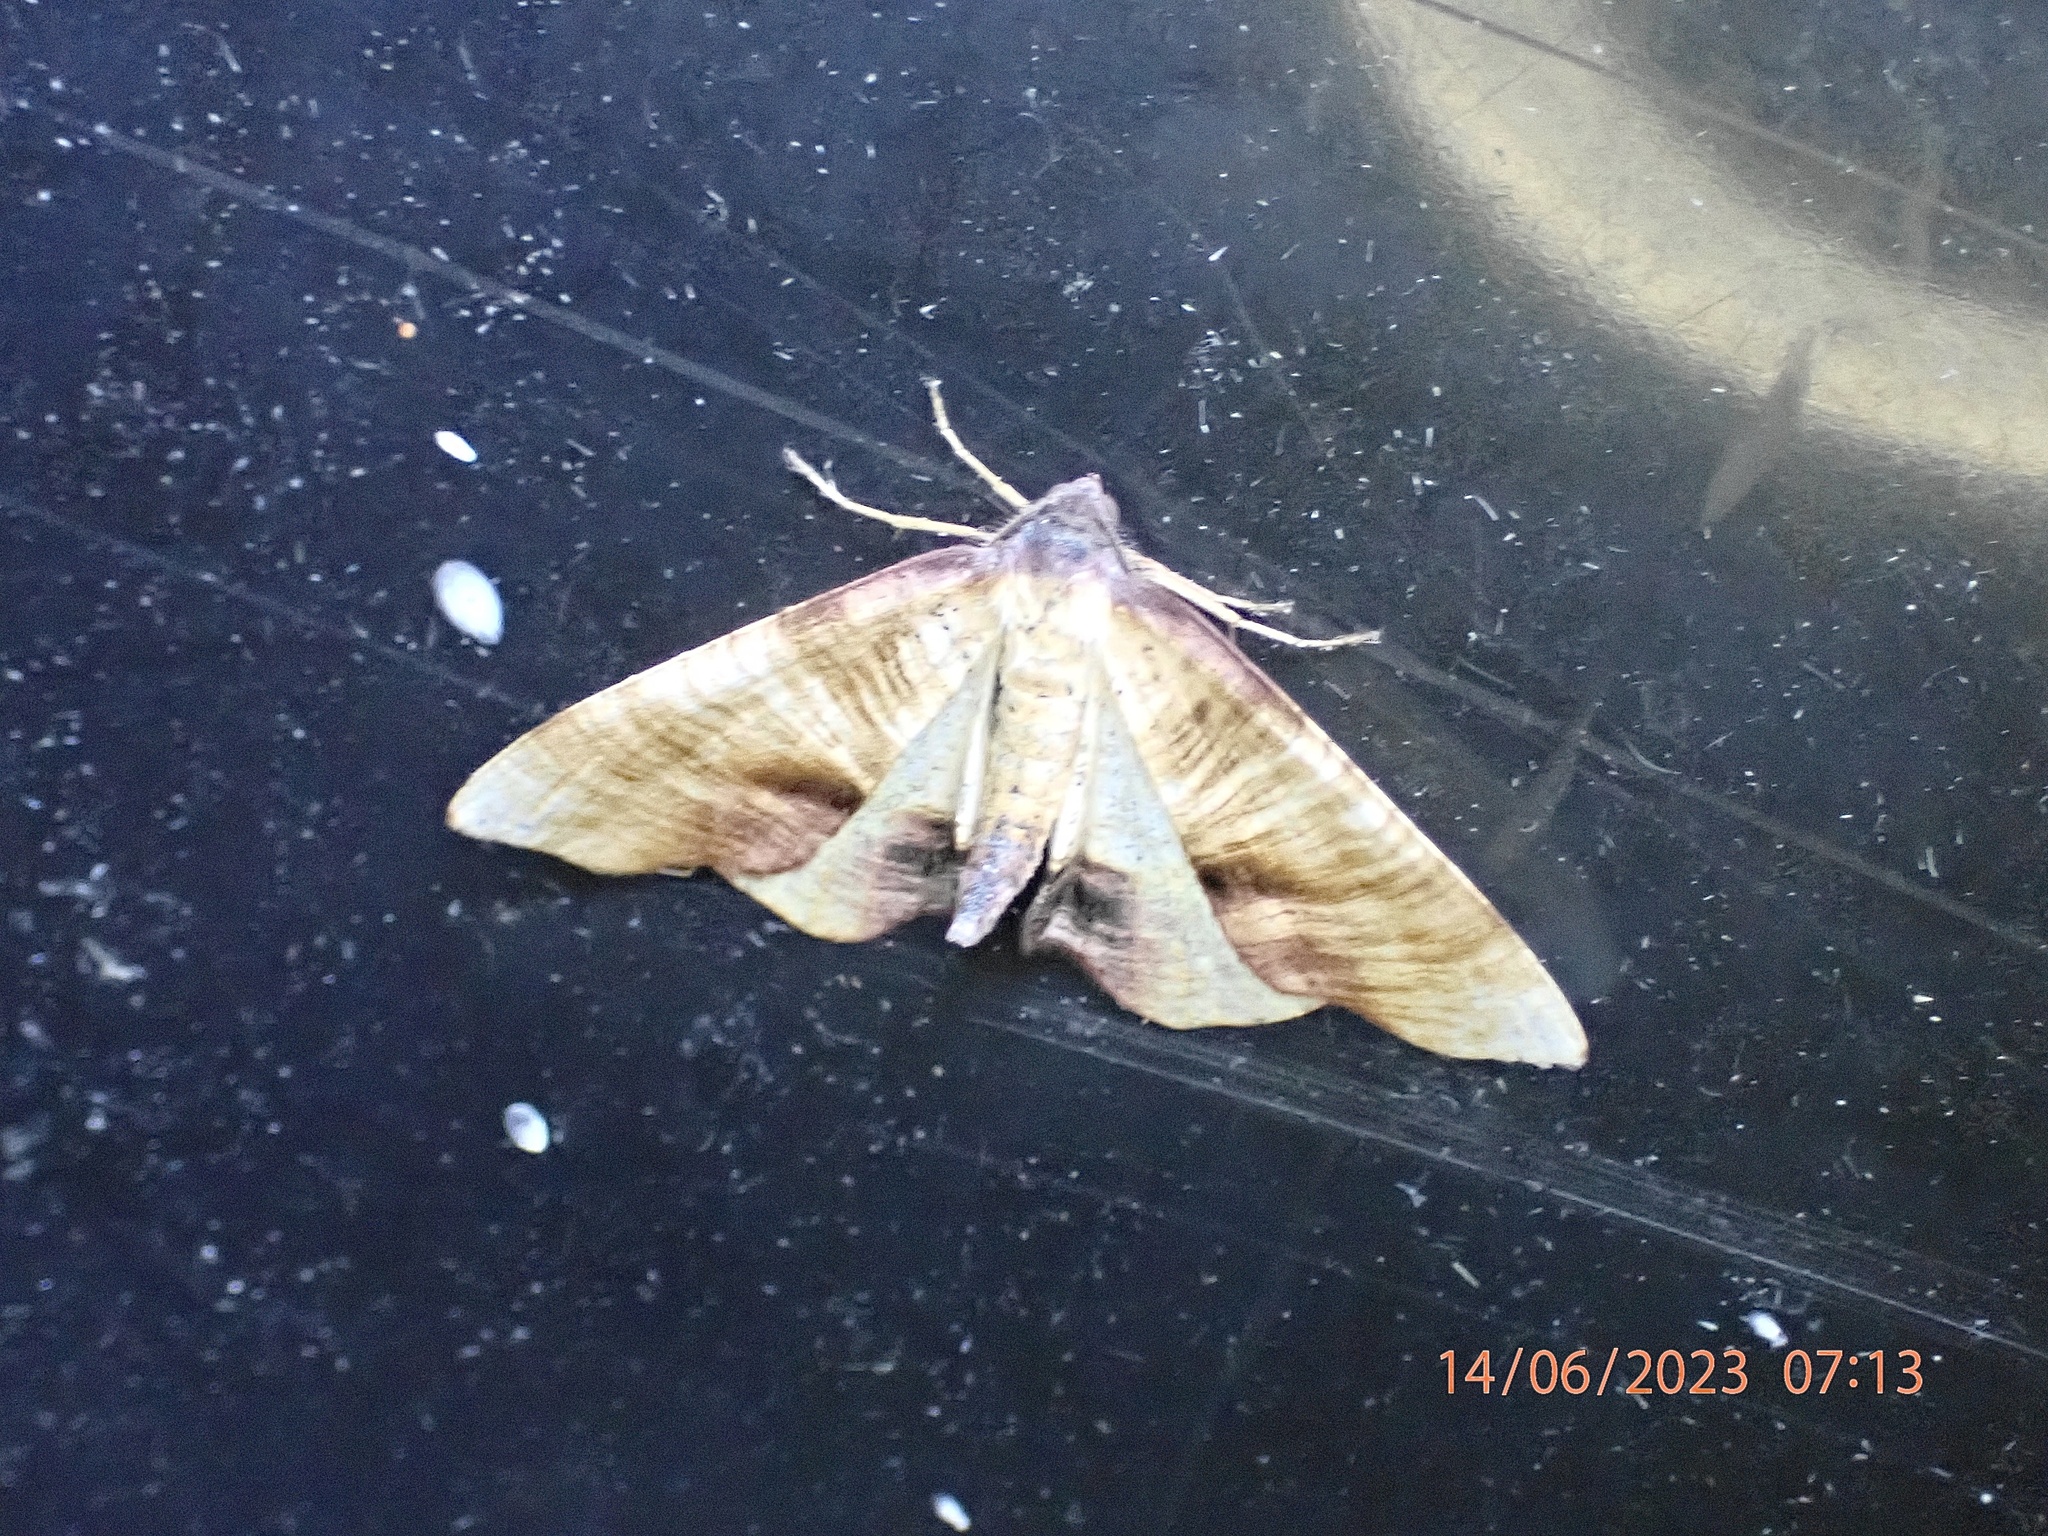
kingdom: Animalia
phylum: Arthropoda
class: Insecta
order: Lepidoptera
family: Geometridae
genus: Plagodis
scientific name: Plagodis dolabraria
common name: Scorched wing
